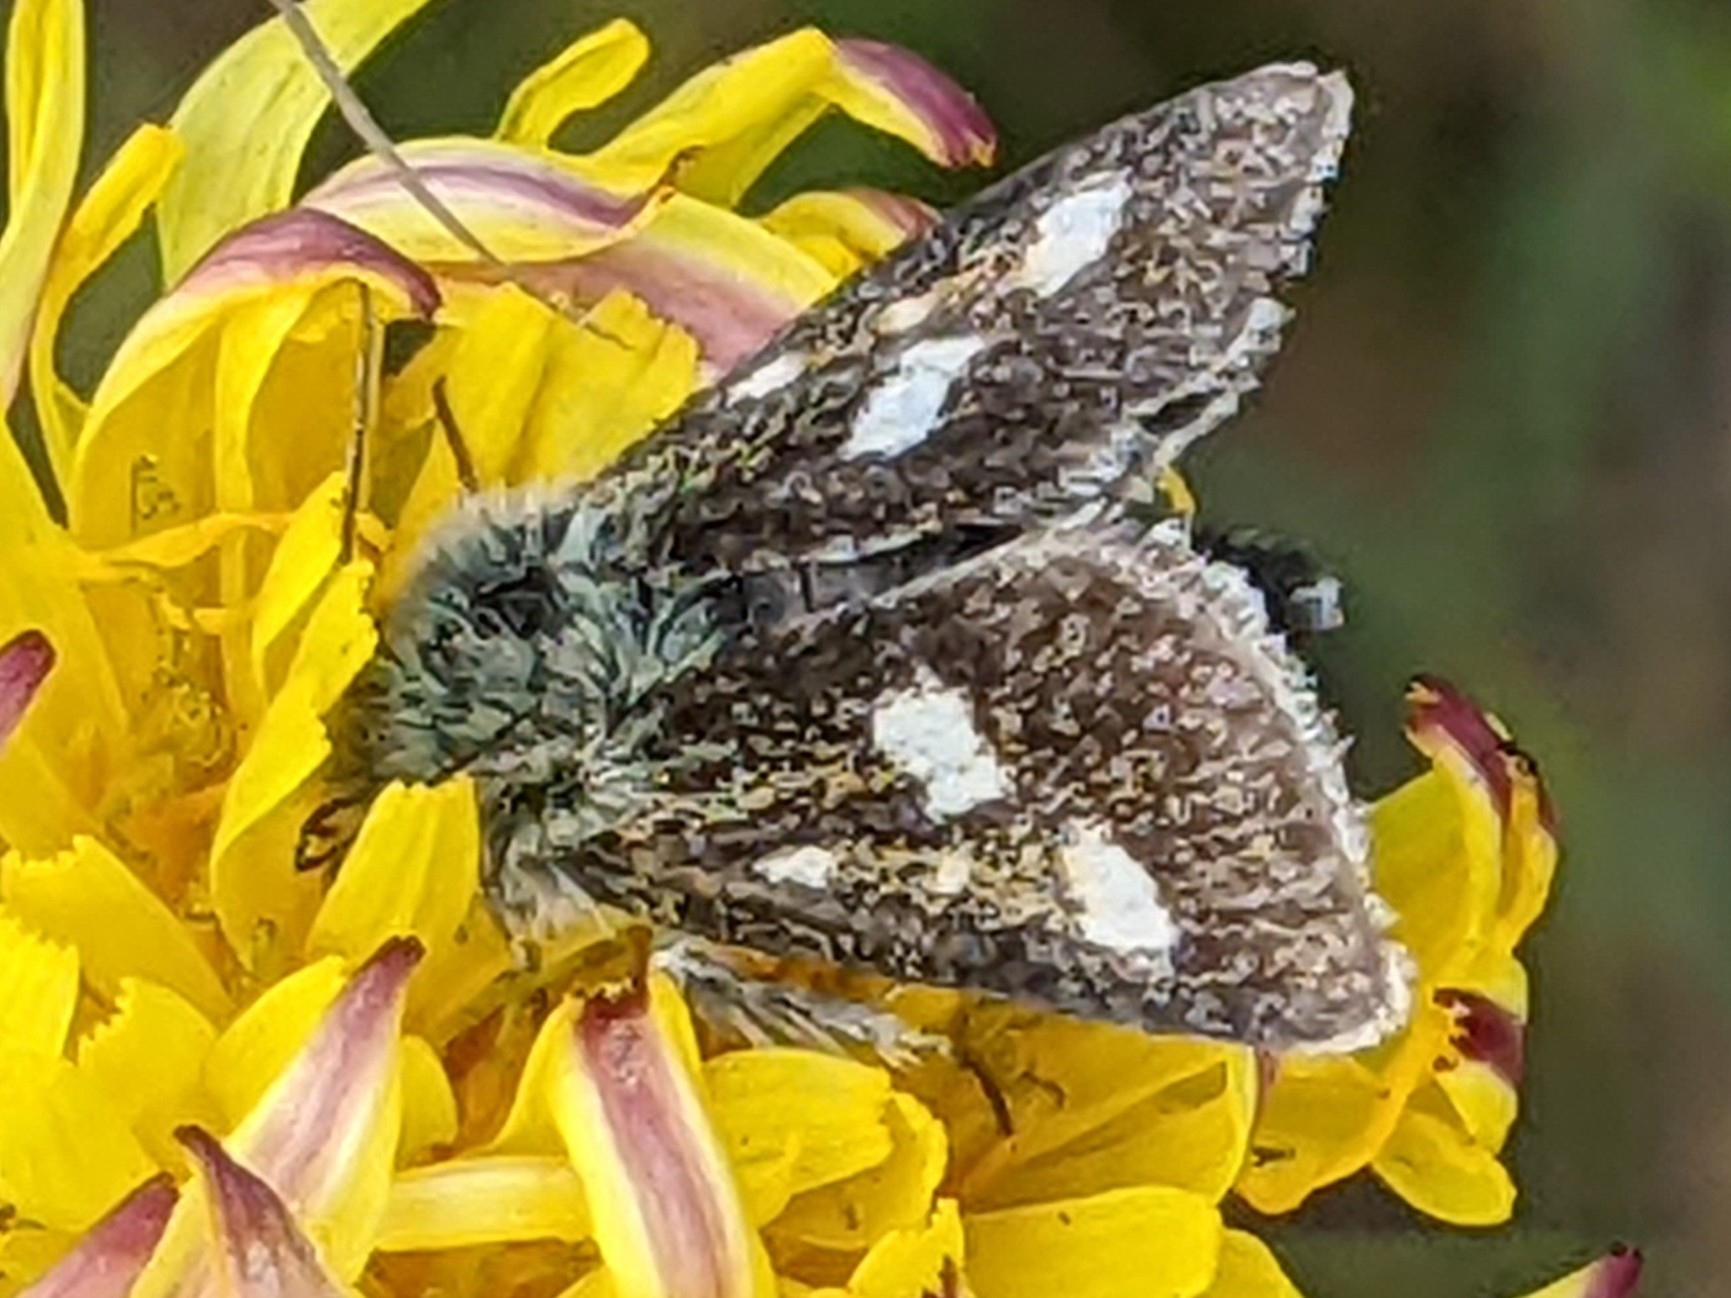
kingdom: Animalia
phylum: Arthropoda
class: Insecta
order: Lepidoptera
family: Noctuidae
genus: Heliothodes
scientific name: Heliothodes diminutiva
